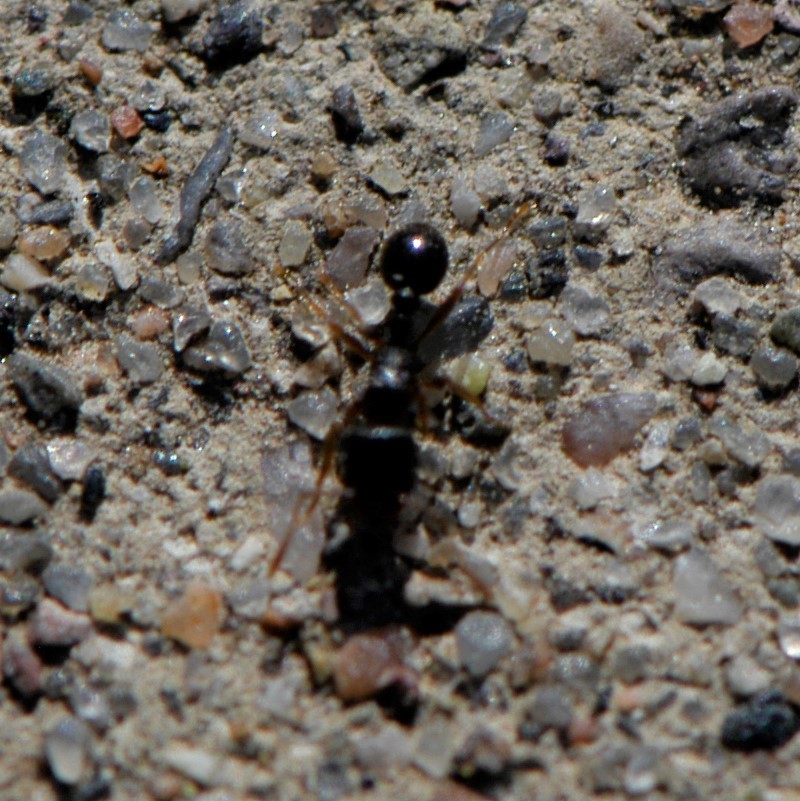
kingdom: Animalia
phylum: Arthropoda
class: Insecta
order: Hymenoptera
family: Formicidae
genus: Tetramorium
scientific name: Tetramorium immigrans
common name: Pavement ant
